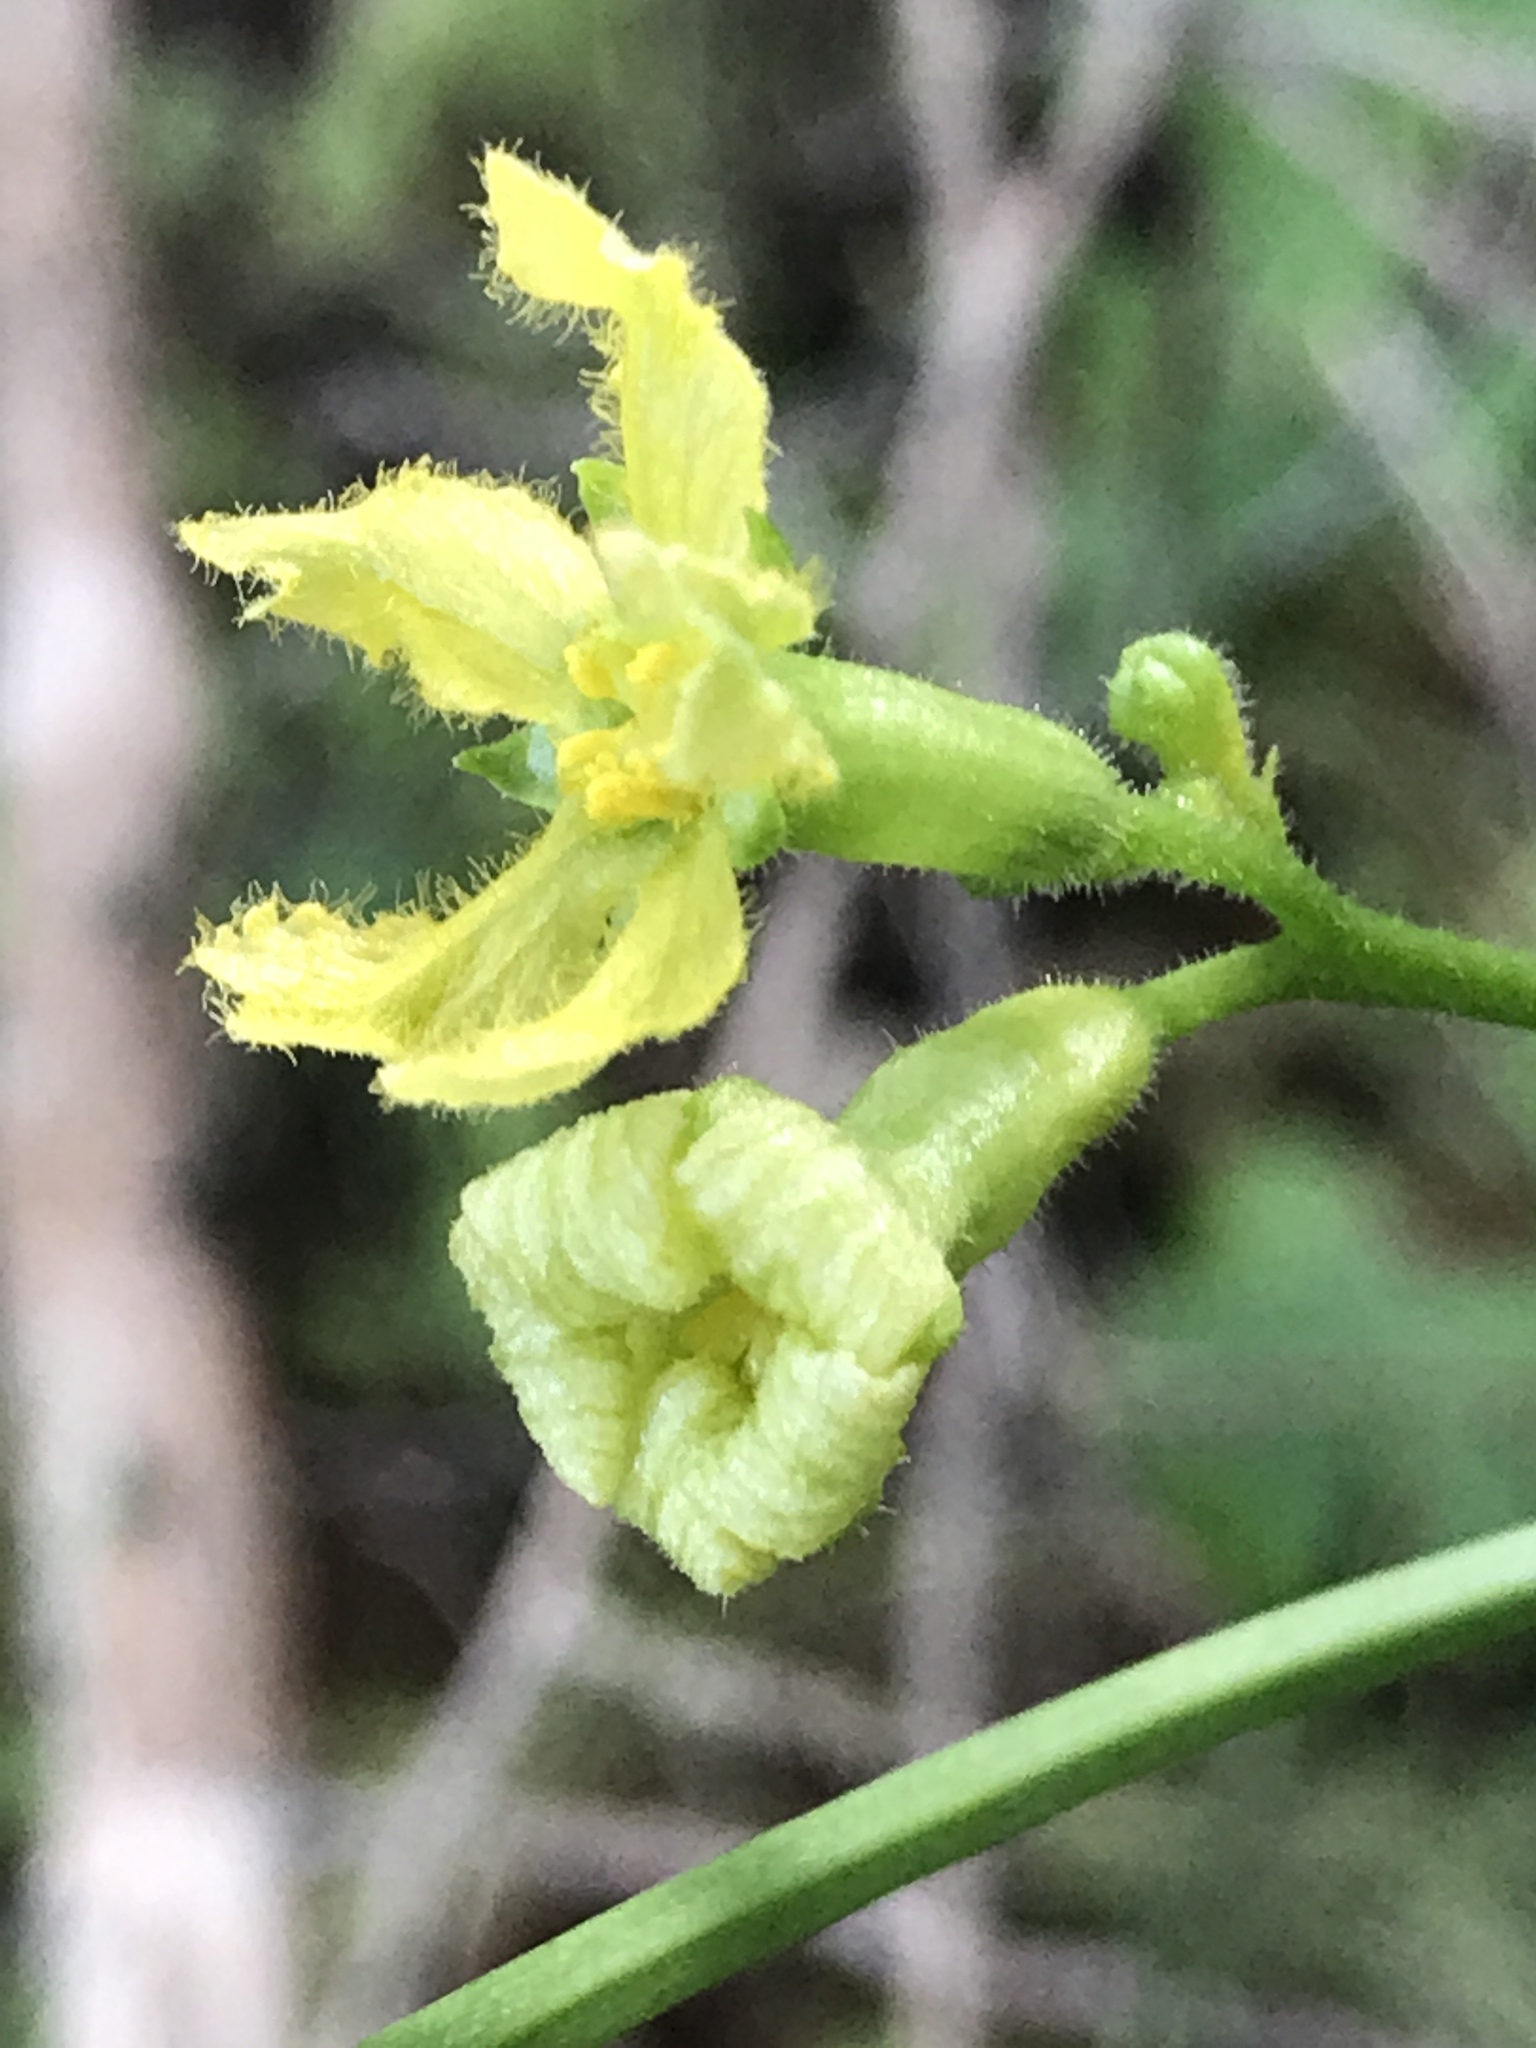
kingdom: Plantae
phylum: Tracheophyta
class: Magnoliopsida
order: Cucurbitales
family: Cucurbitaceae
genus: Ibervillea
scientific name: Ibervillea lindheimeri
